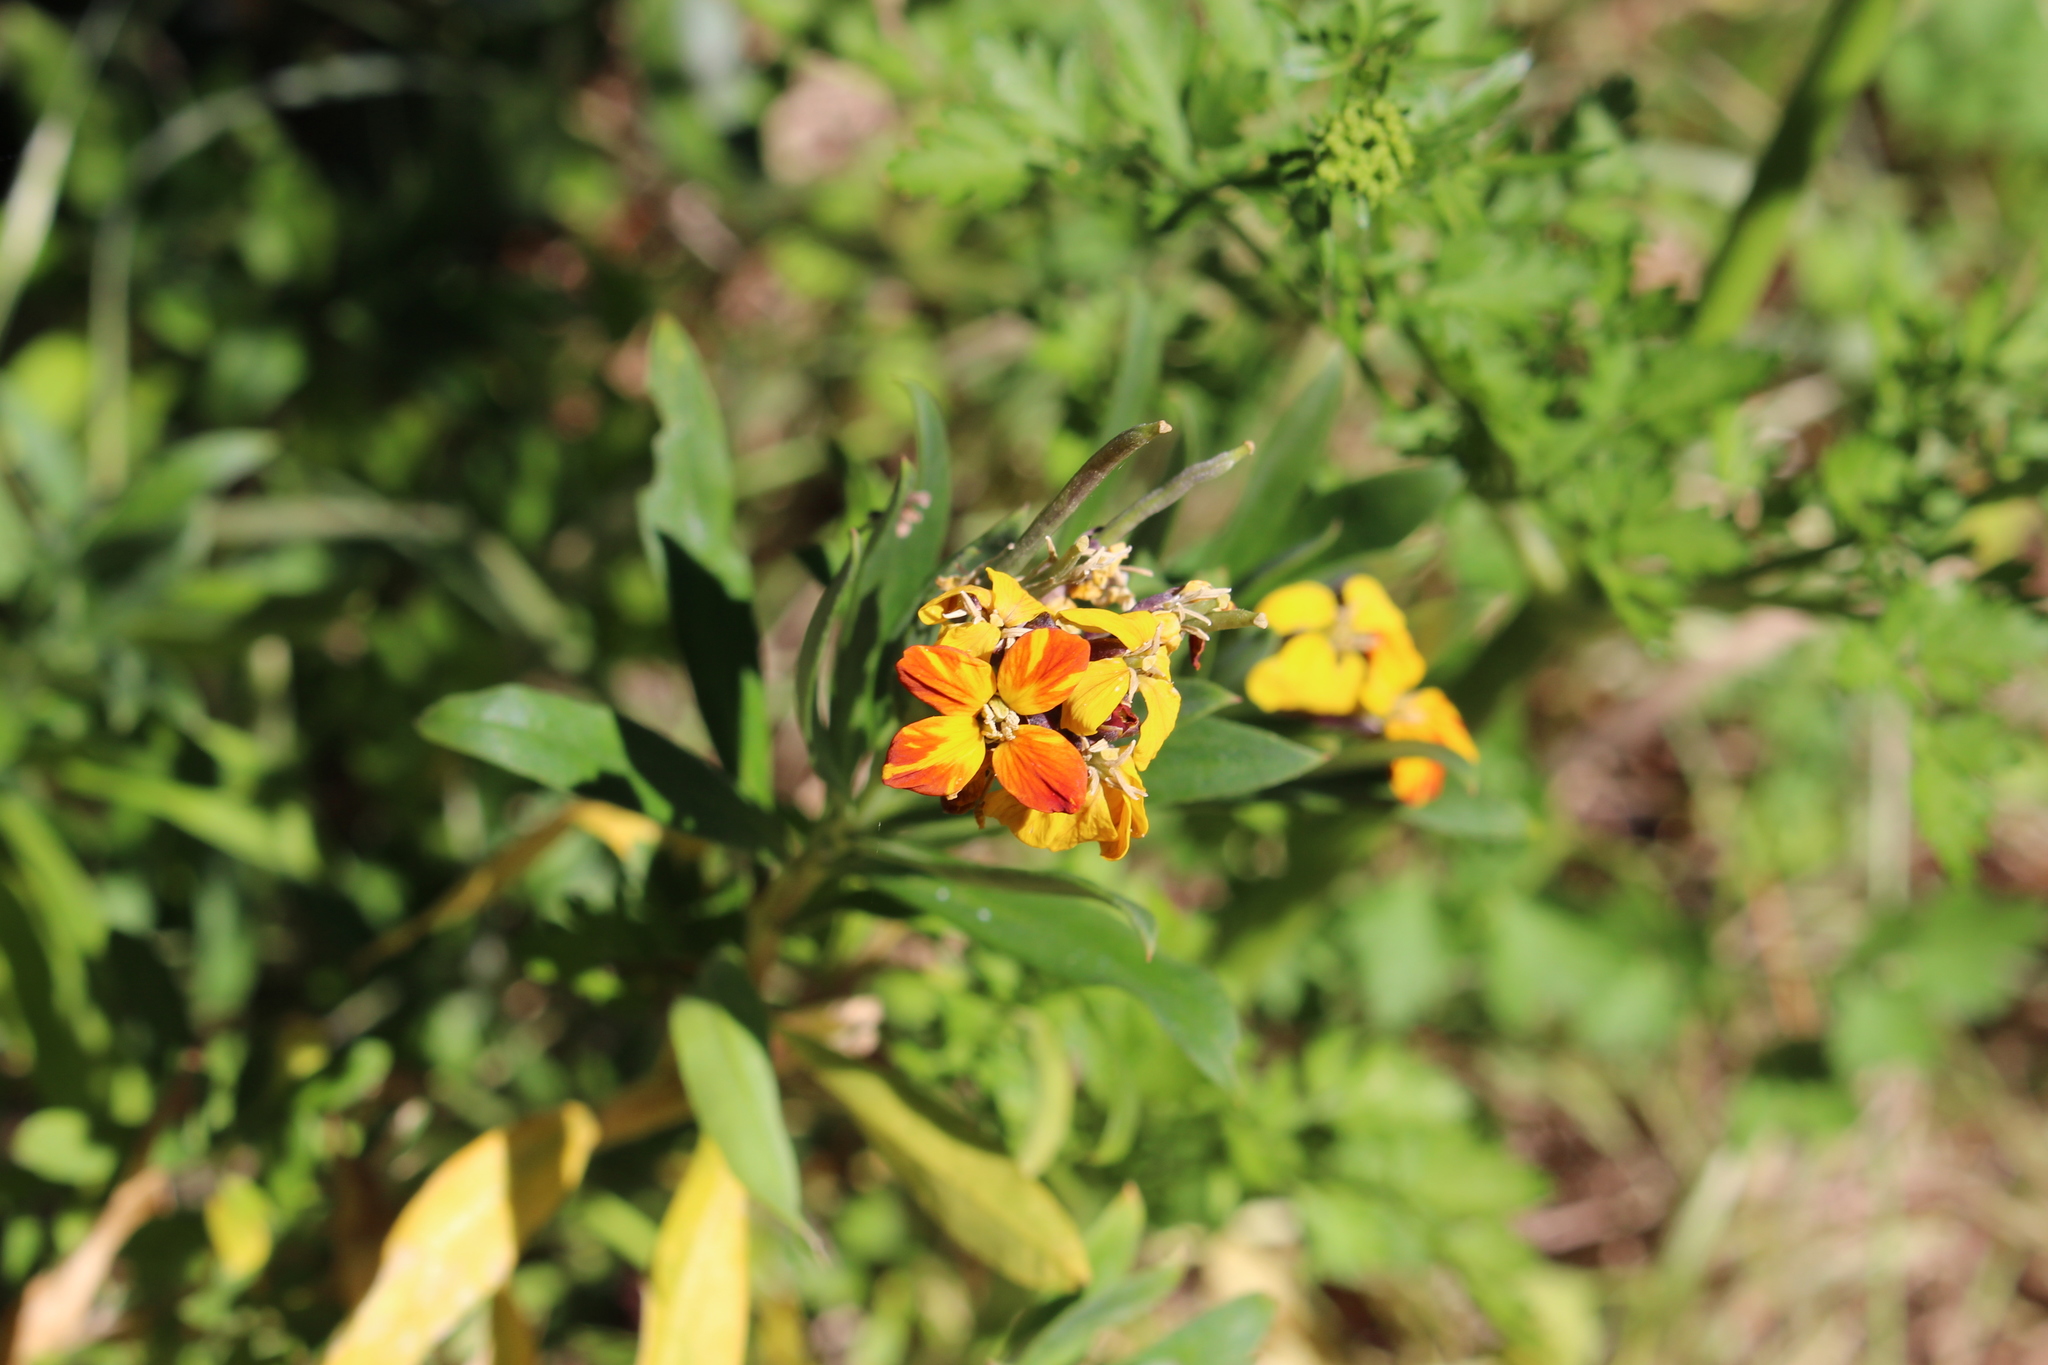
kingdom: Plantae
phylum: Tracheophyta
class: Magnoliopsida
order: Brassicales
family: Brassicaceae
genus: Erysimum
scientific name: Erysimum cheiri
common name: Wallflower
